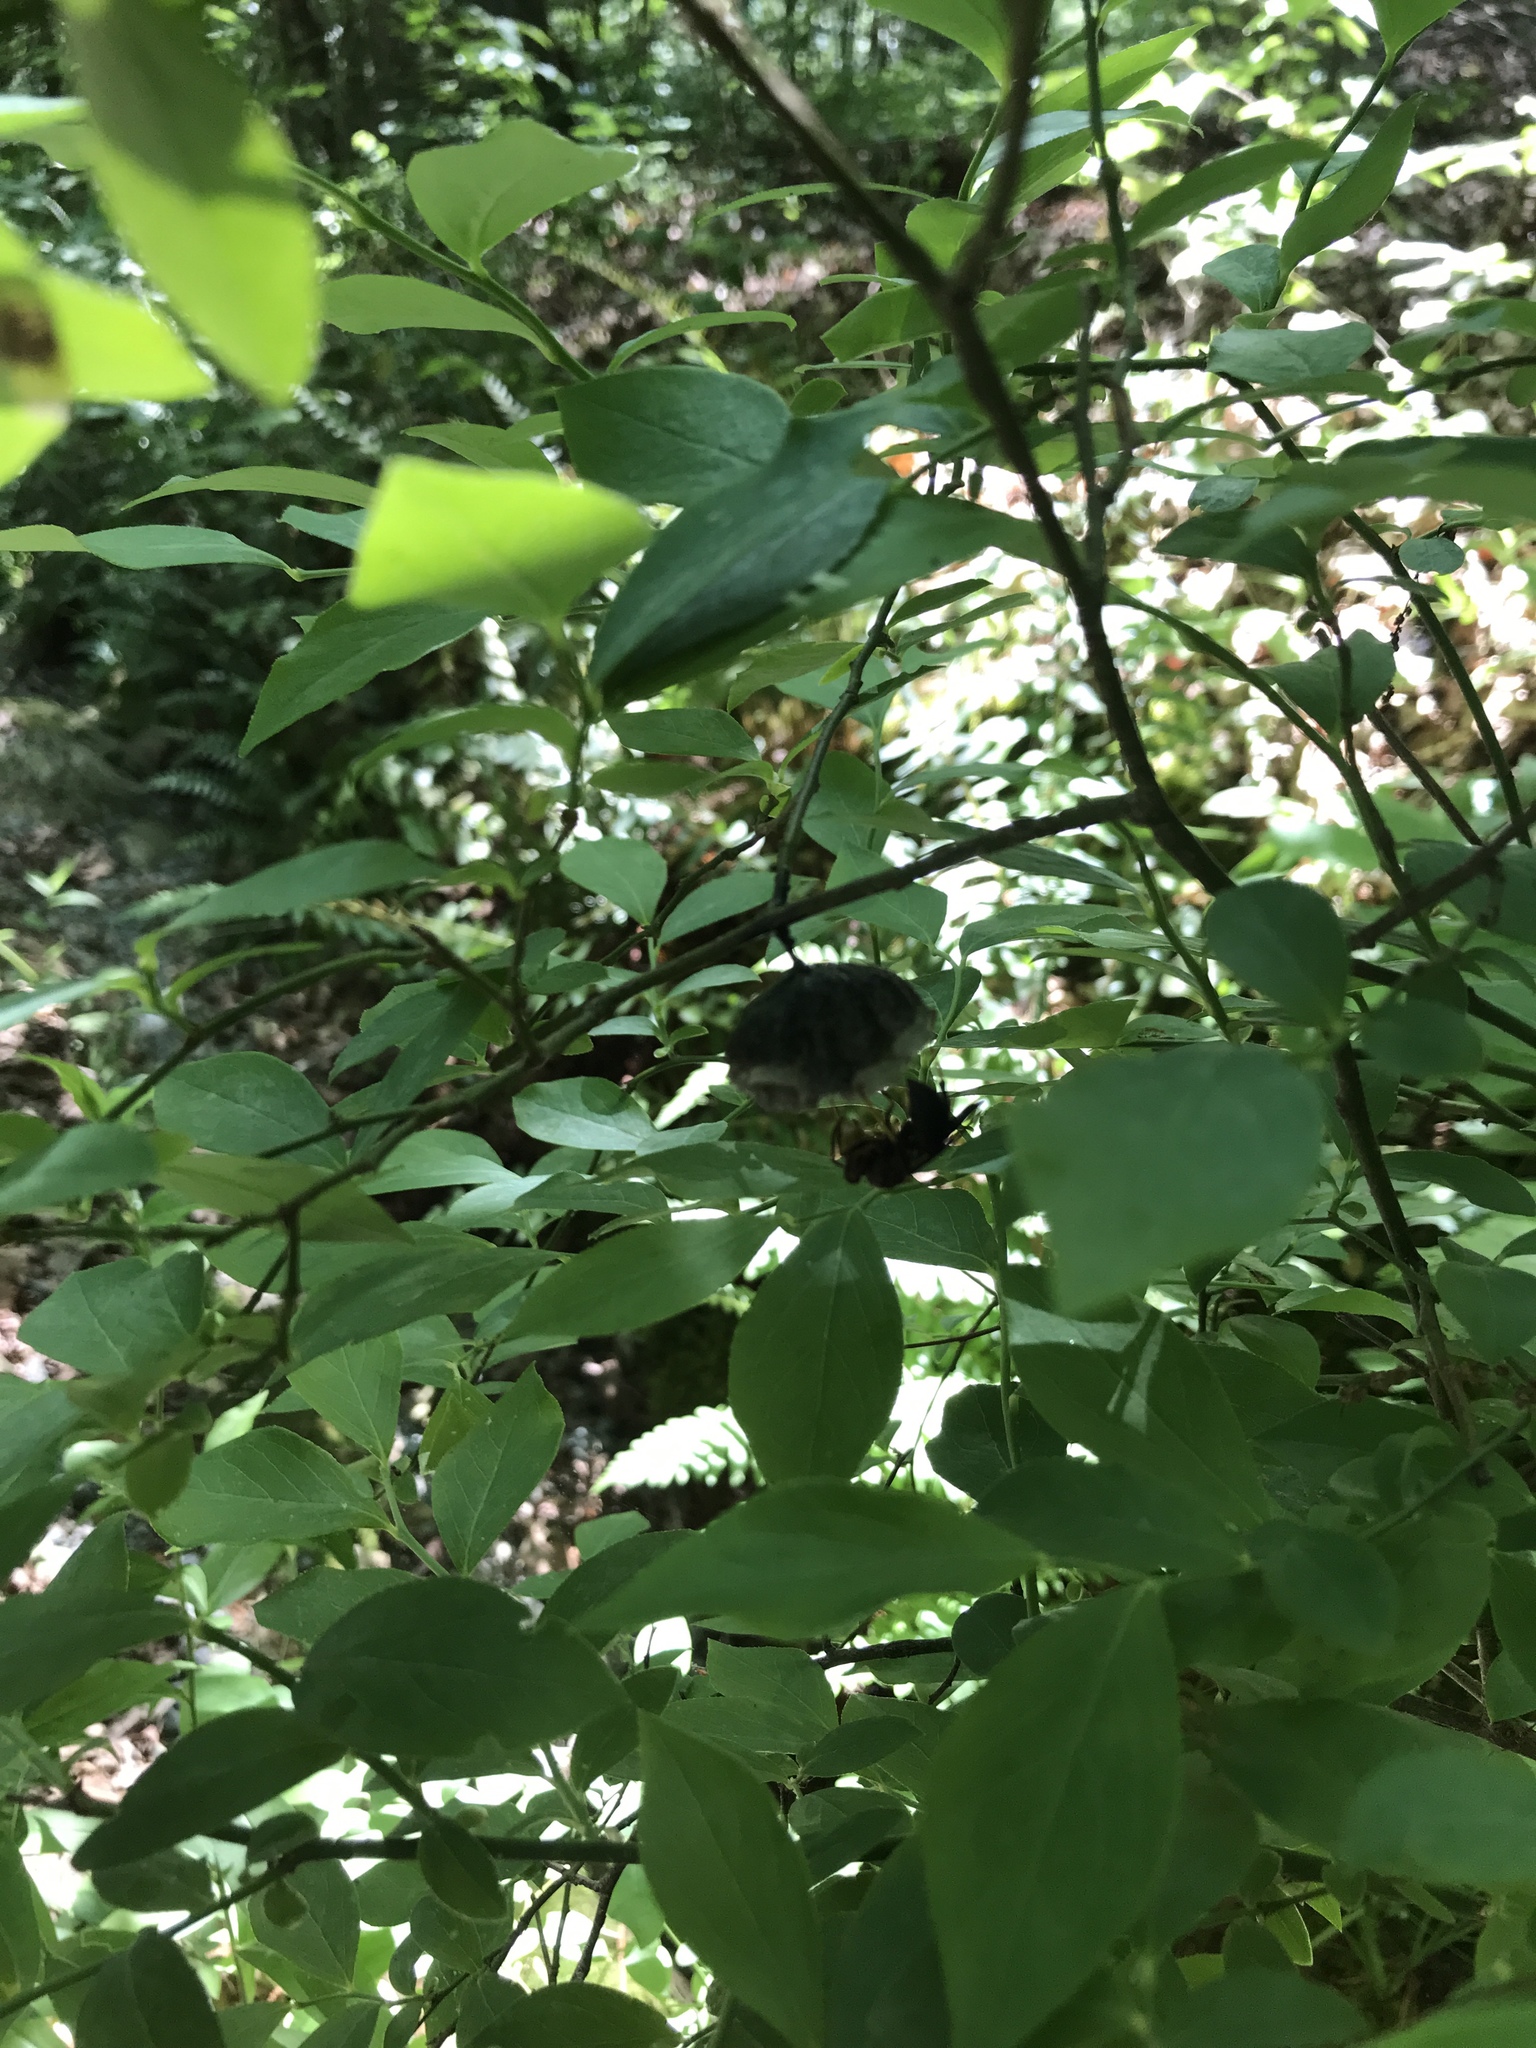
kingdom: Animalia
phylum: Arthropoda
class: Insecta
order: Hymenoptera
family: Vespidae
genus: Fuscopolistes
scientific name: Fuscopolistes
